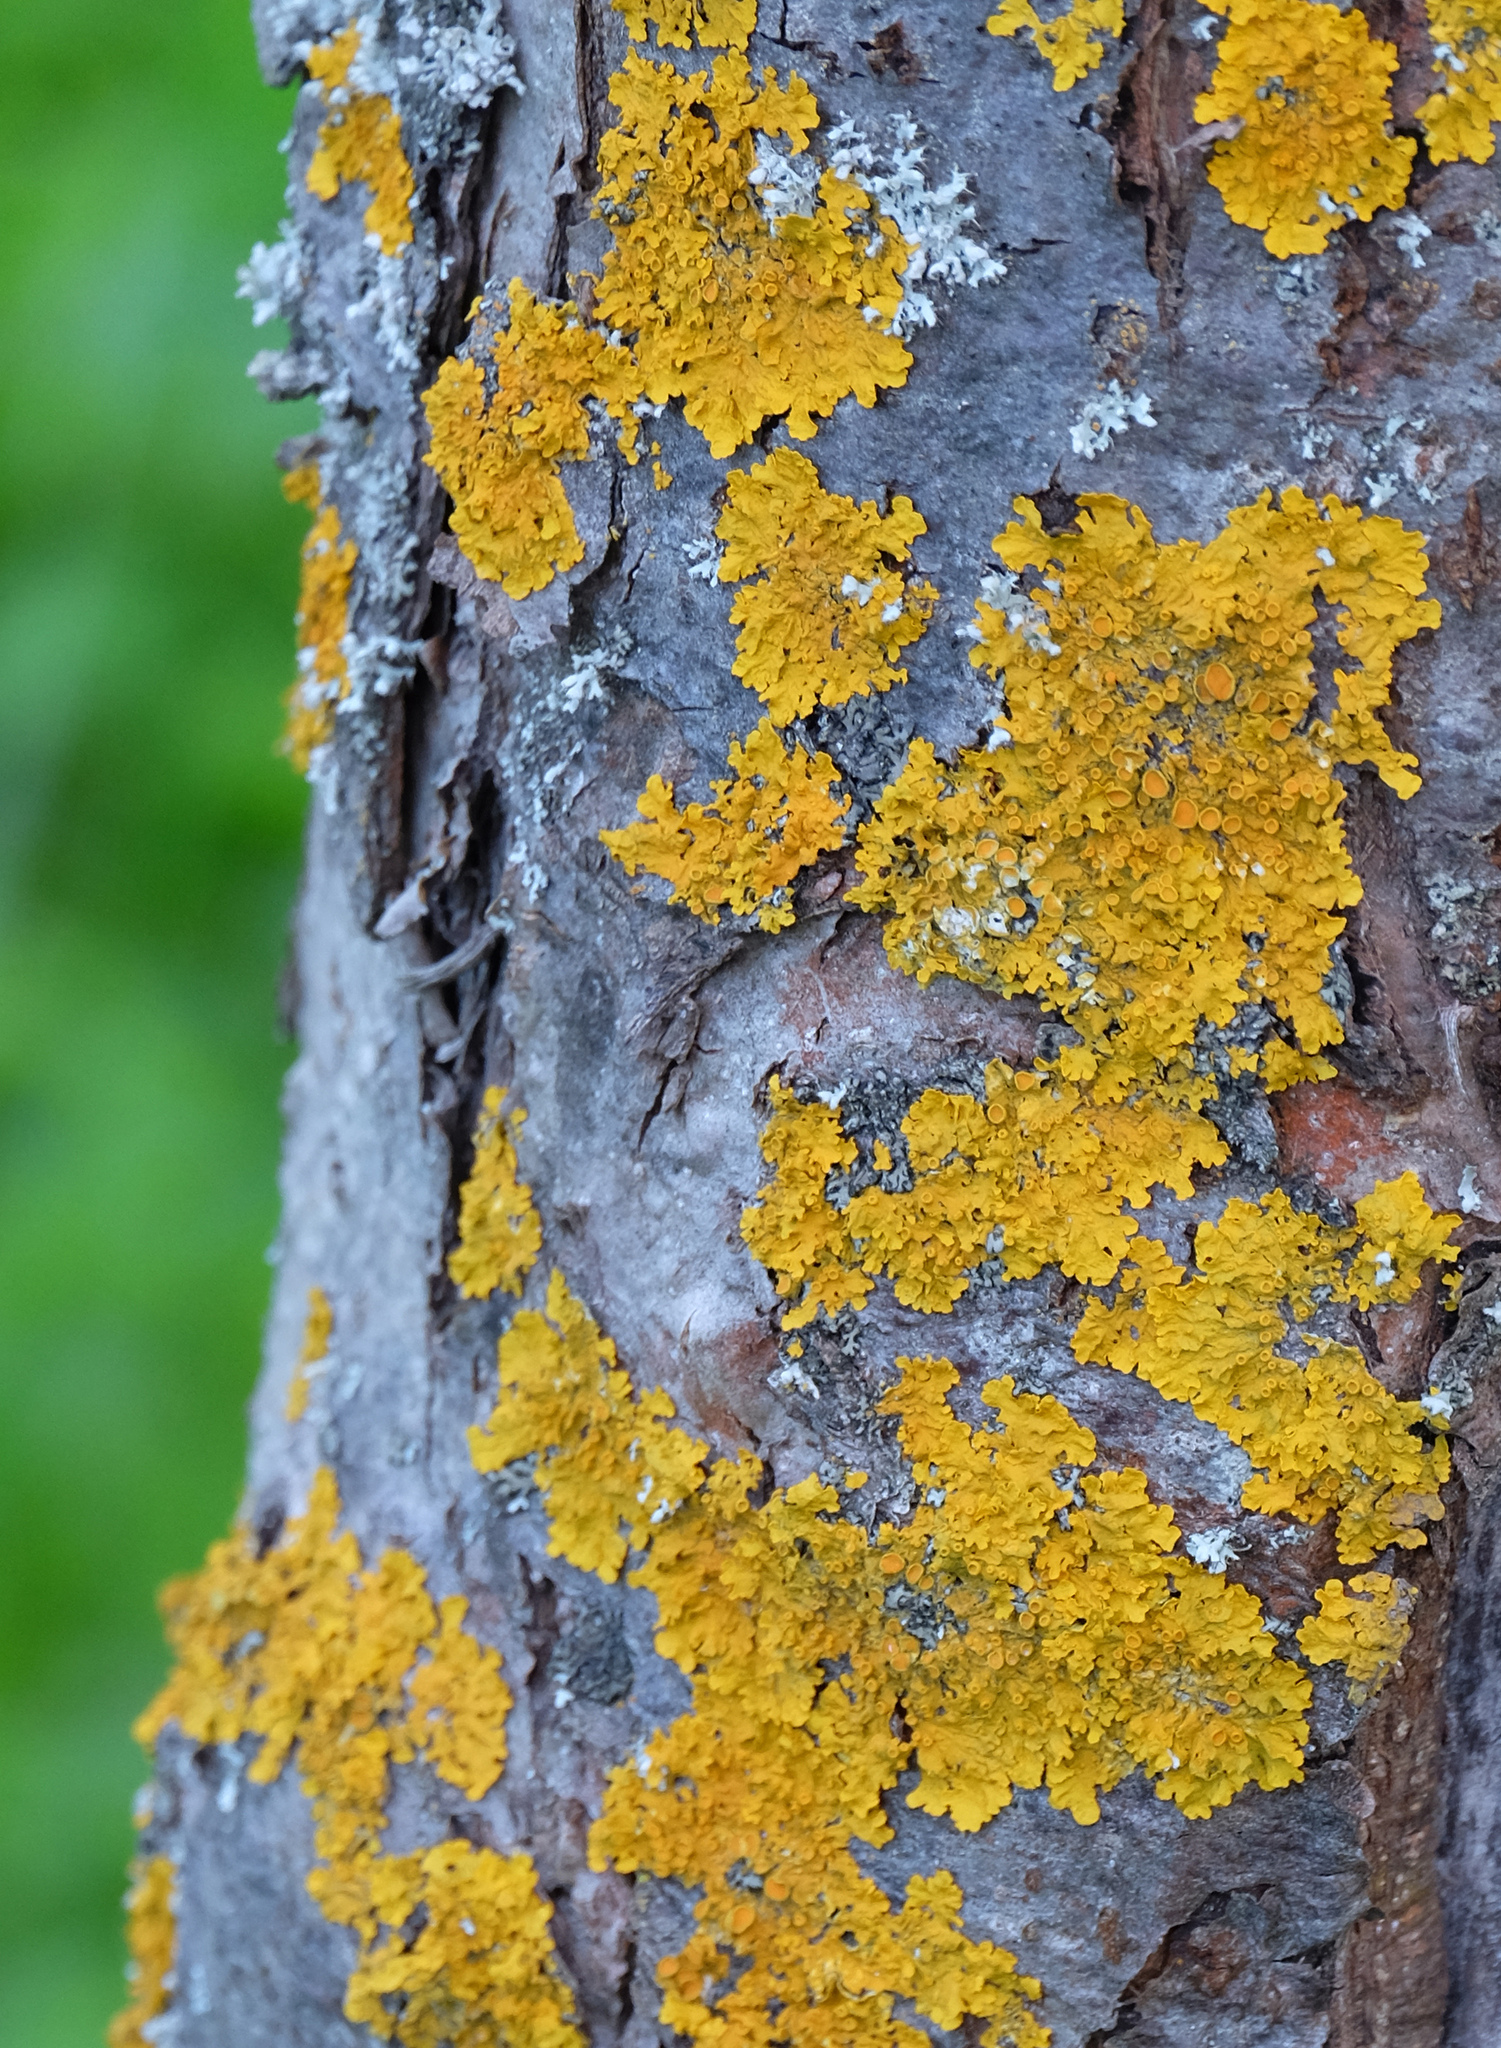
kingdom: Fungi
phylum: Ascomycota
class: Lecanoromycetes
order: Teloschistales
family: Teloschistaceae
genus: Xanthoria
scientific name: Xanthoria parietina
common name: Common orange lichen
